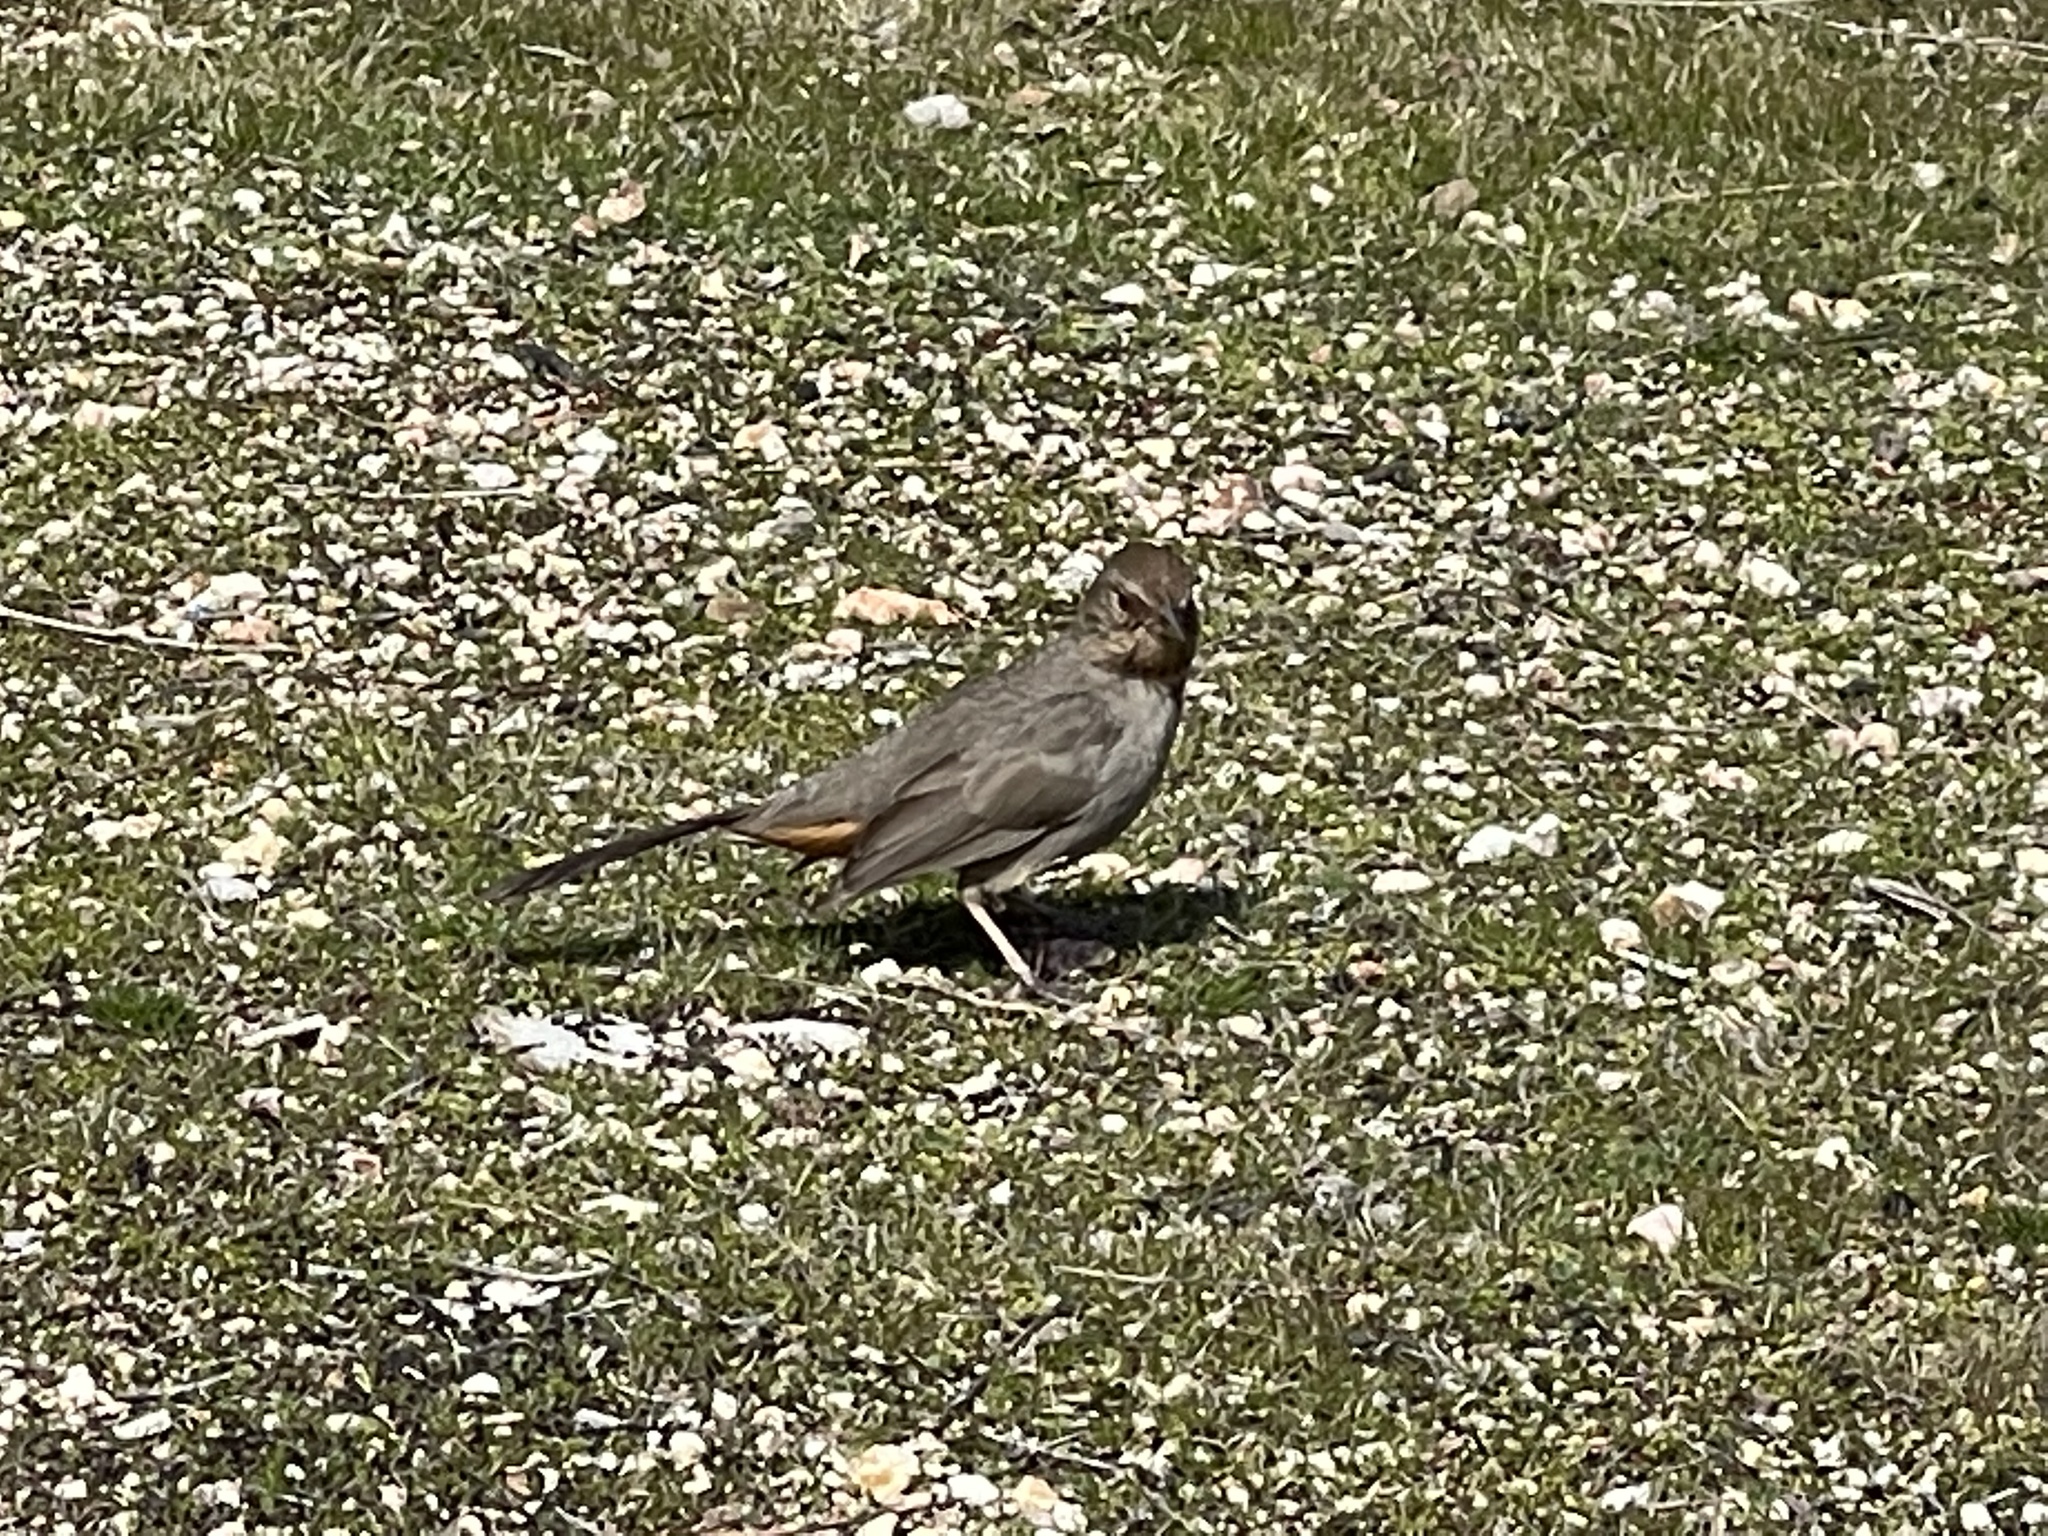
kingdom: Animalia
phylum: Chordata
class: Aves
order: Passeriformes
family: Passerellidae
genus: Melozone
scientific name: Melozone crissalis
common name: California towhee
